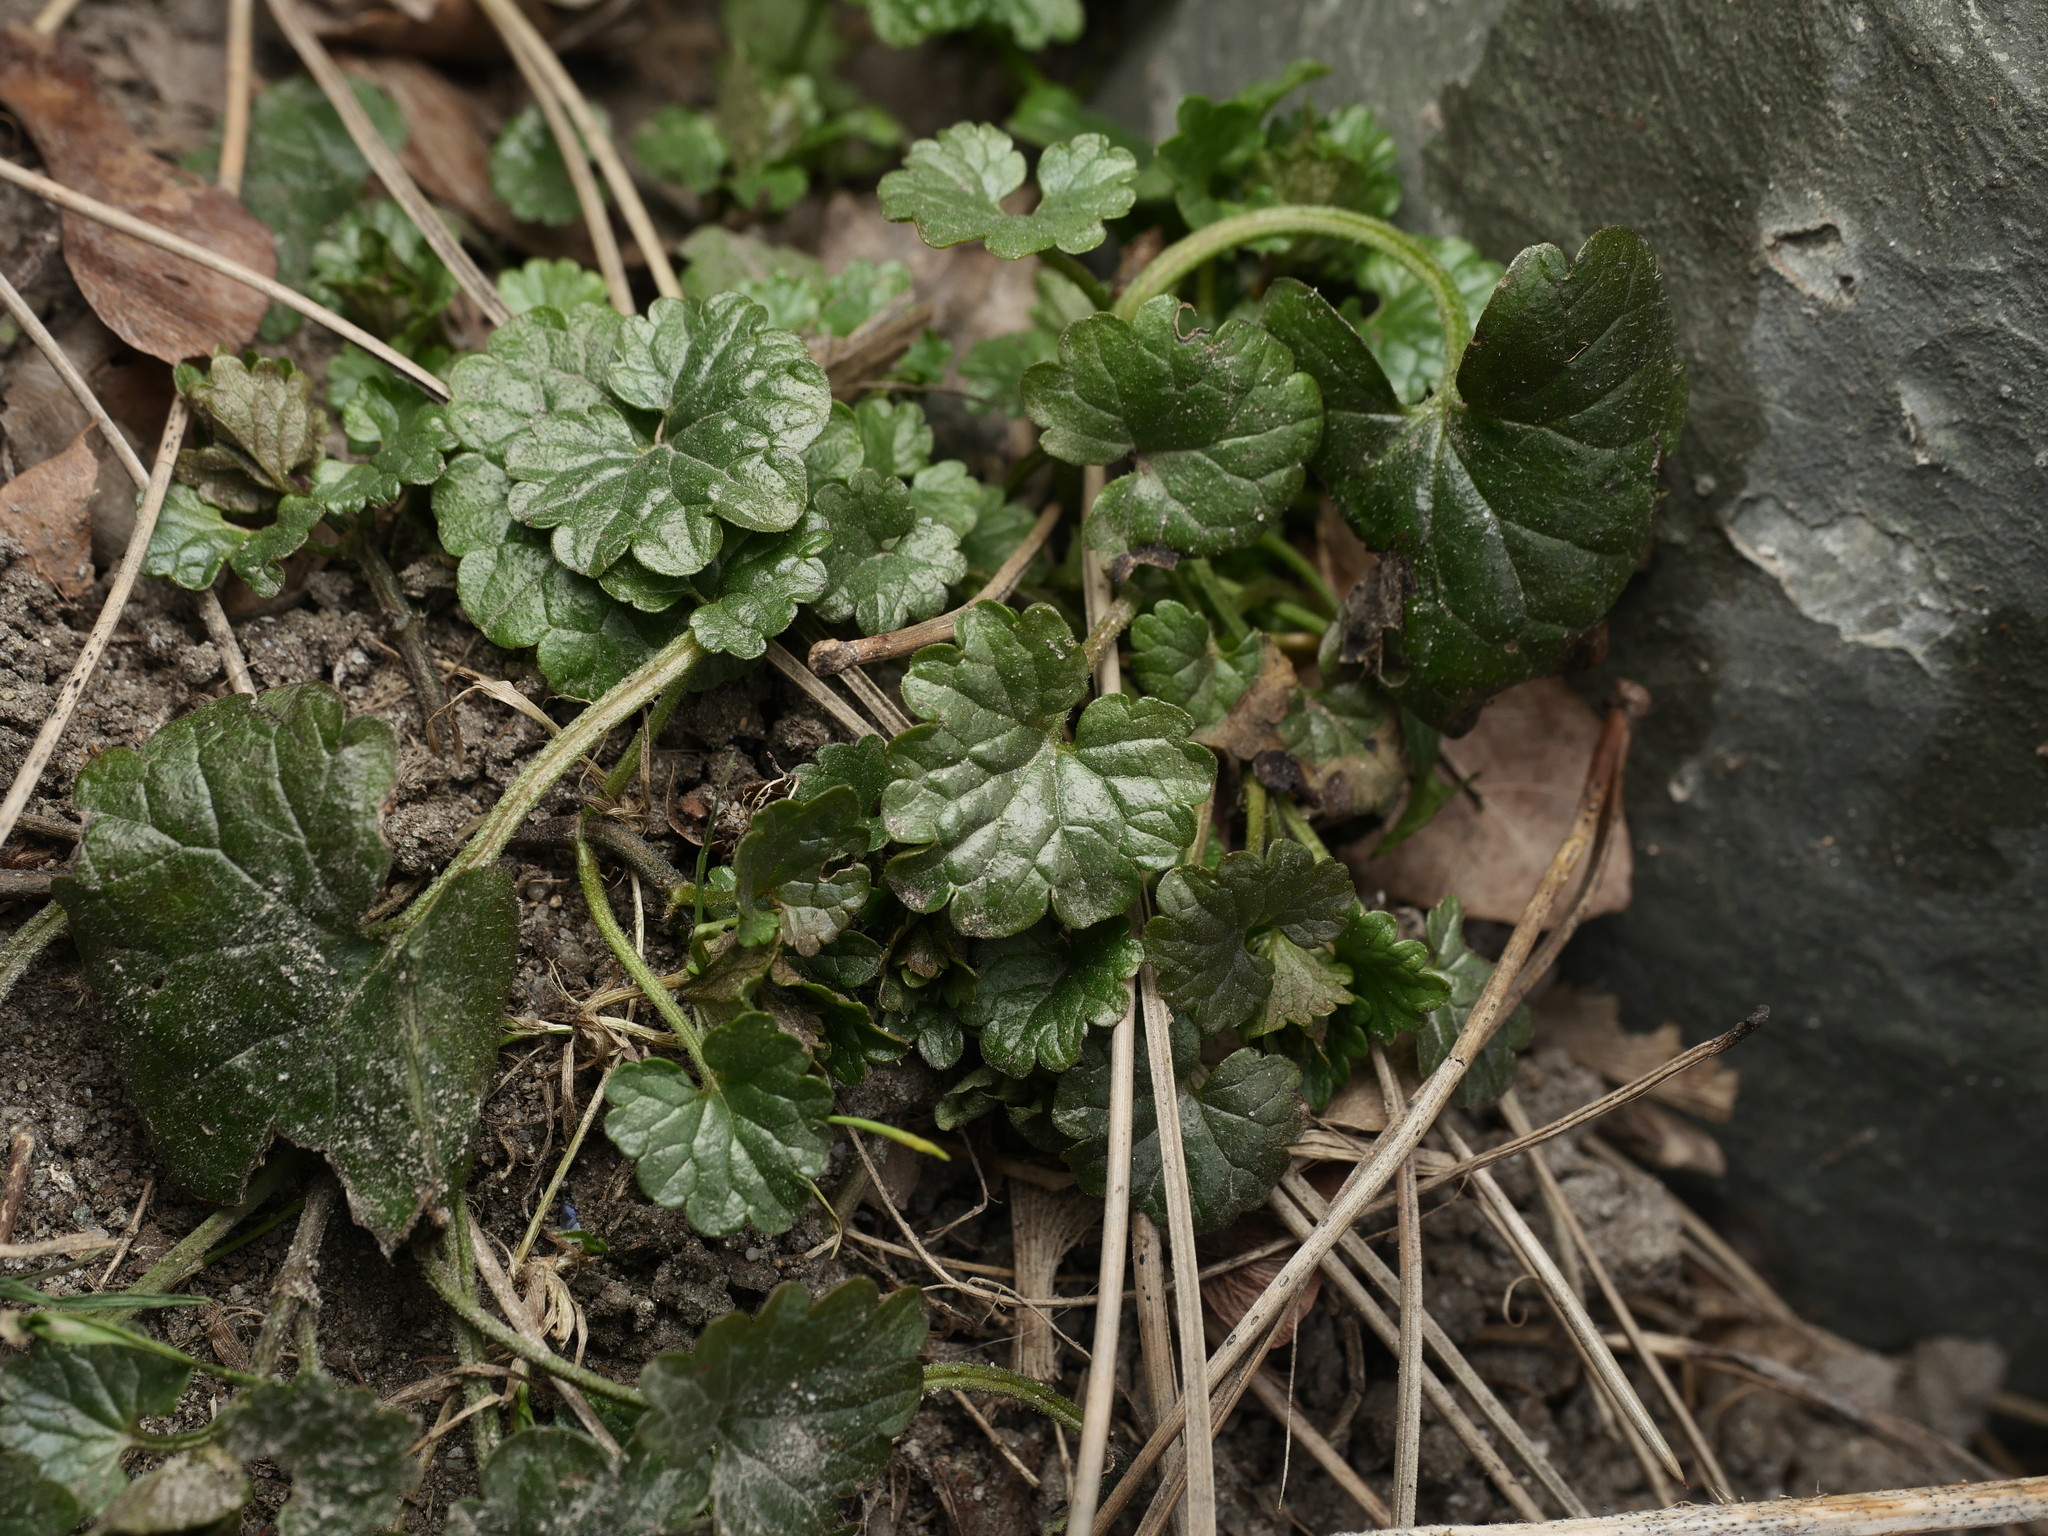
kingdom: Plantae
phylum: Tracheophyta
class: Magnoliopsida
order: Lamiales
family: Lamiaceae
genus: Glechoma
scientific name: Glechoma hederacea
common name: Ground ivy
